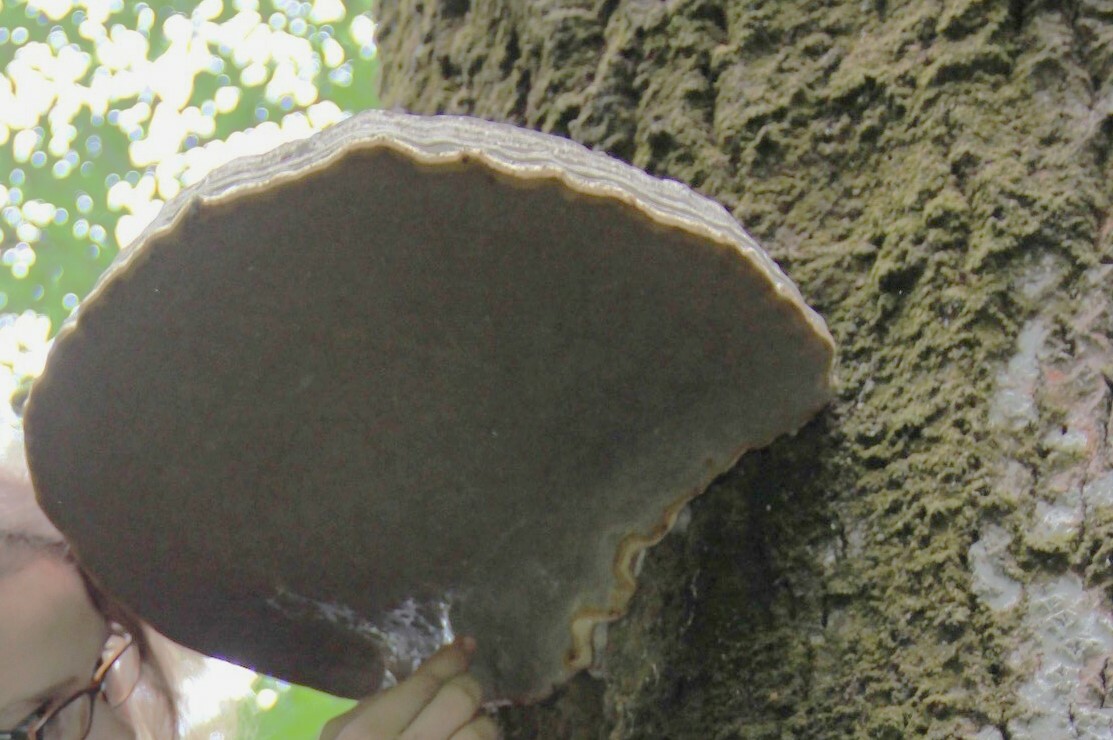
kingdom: Fungi
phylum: Basidiomycota
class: Agaricomycetes
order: Polyporales
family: Polyporaceae
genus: Fomes
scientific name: Fomes fomentarius
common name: Hoof fungus
